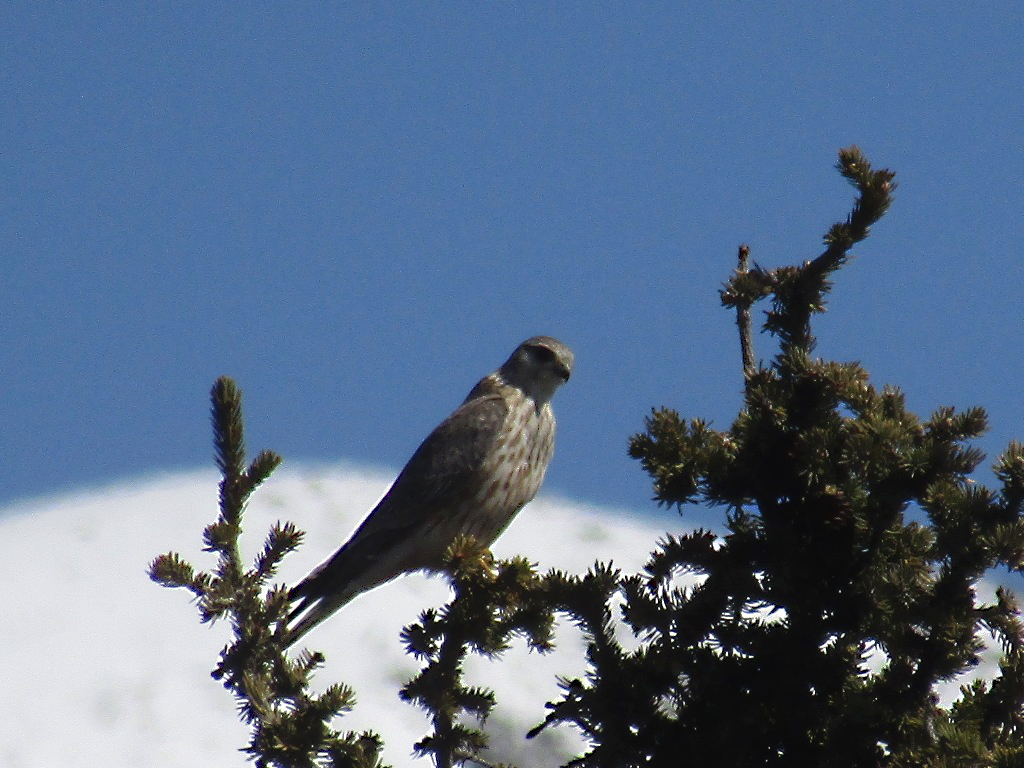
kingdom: Animalia
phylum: Chordata
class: Aves
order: Falconiformes
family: Falconidae
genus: Falco
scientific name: Falco columbarius
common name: Merlin
